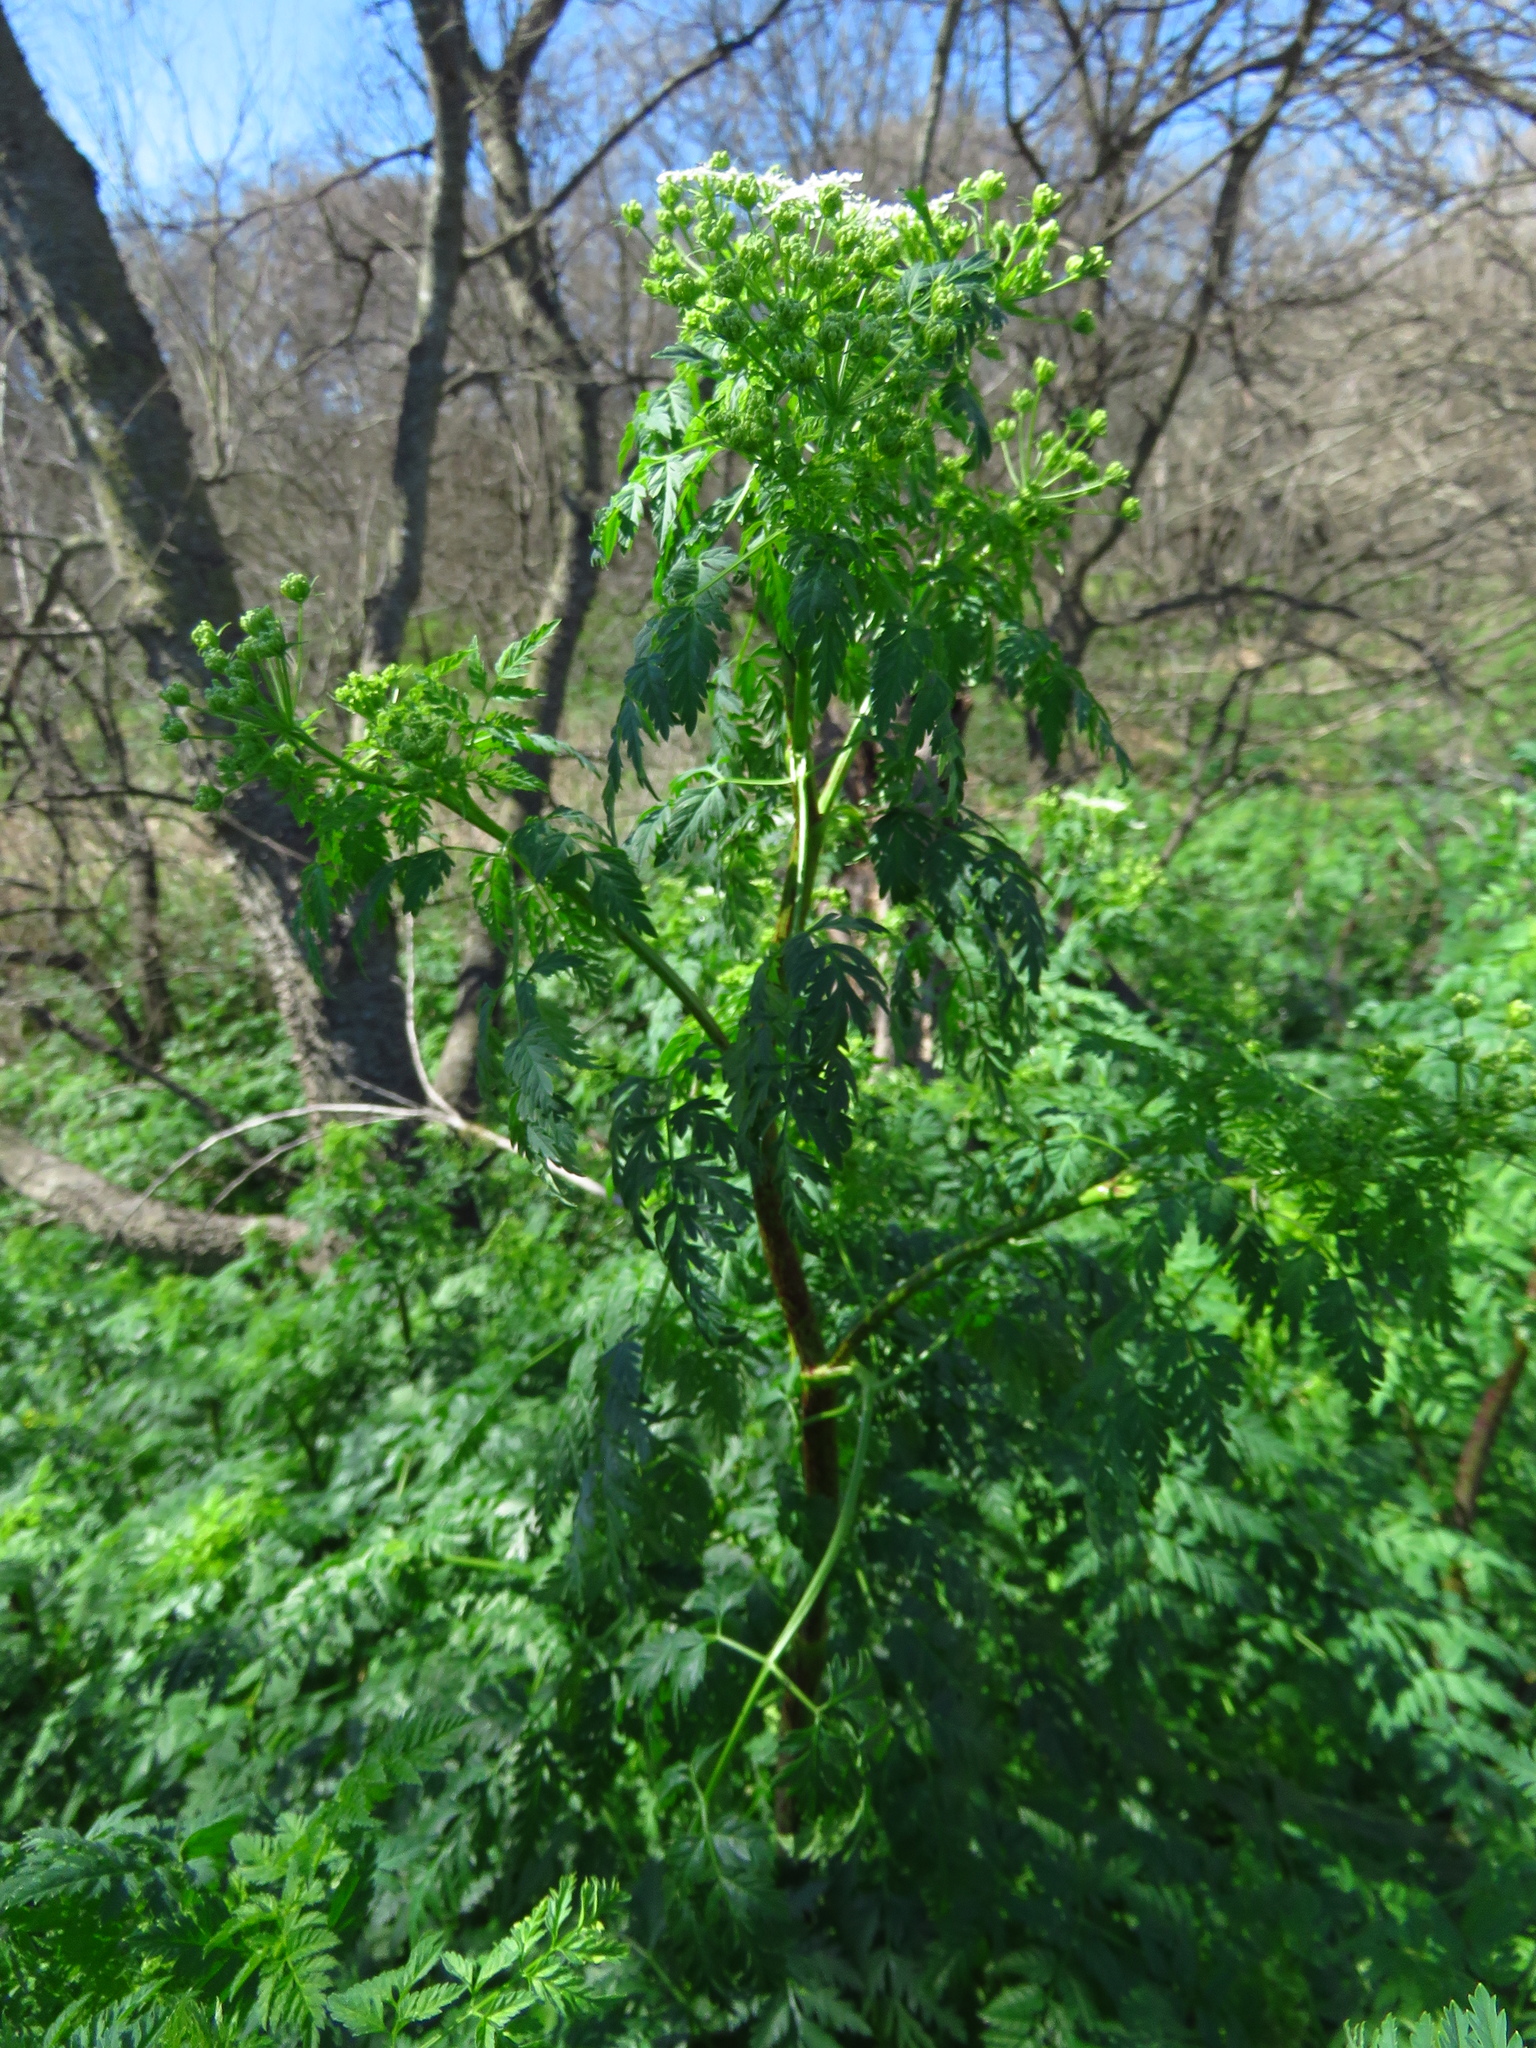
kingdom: Plantae
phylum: Tracheophyta
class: Magnoliopsida
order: Apiales
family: Apiaceae
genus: Conium
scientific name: Conium maculatum
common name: Hemlock
